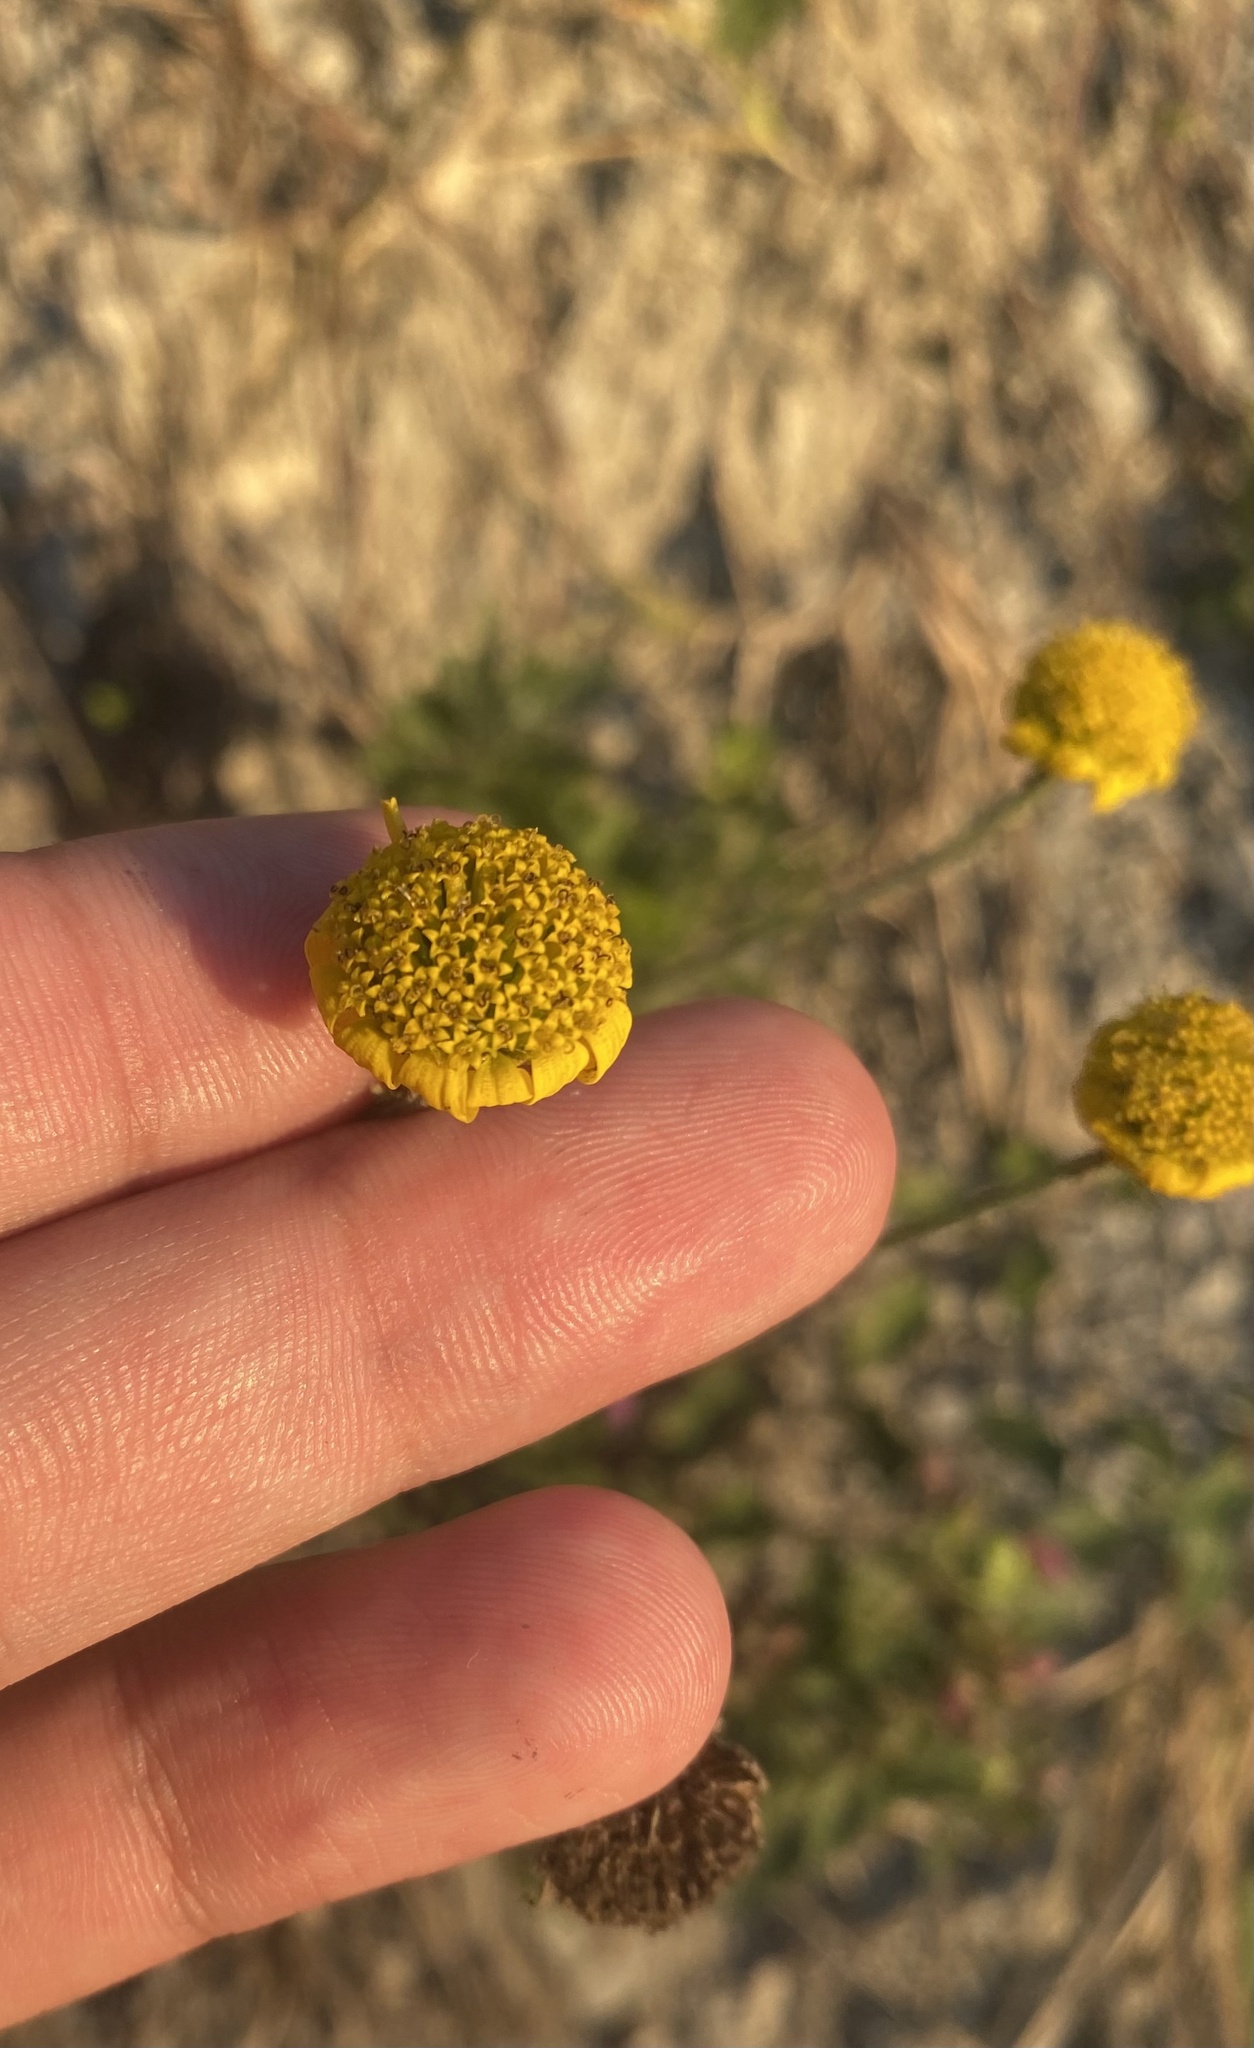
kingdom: Plantae
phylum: Tracheophyta
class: Magnoliopsida
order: Asterales
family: Asteraceae
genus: Cota
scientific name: Cota tinctoria
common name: Golden chamomile
